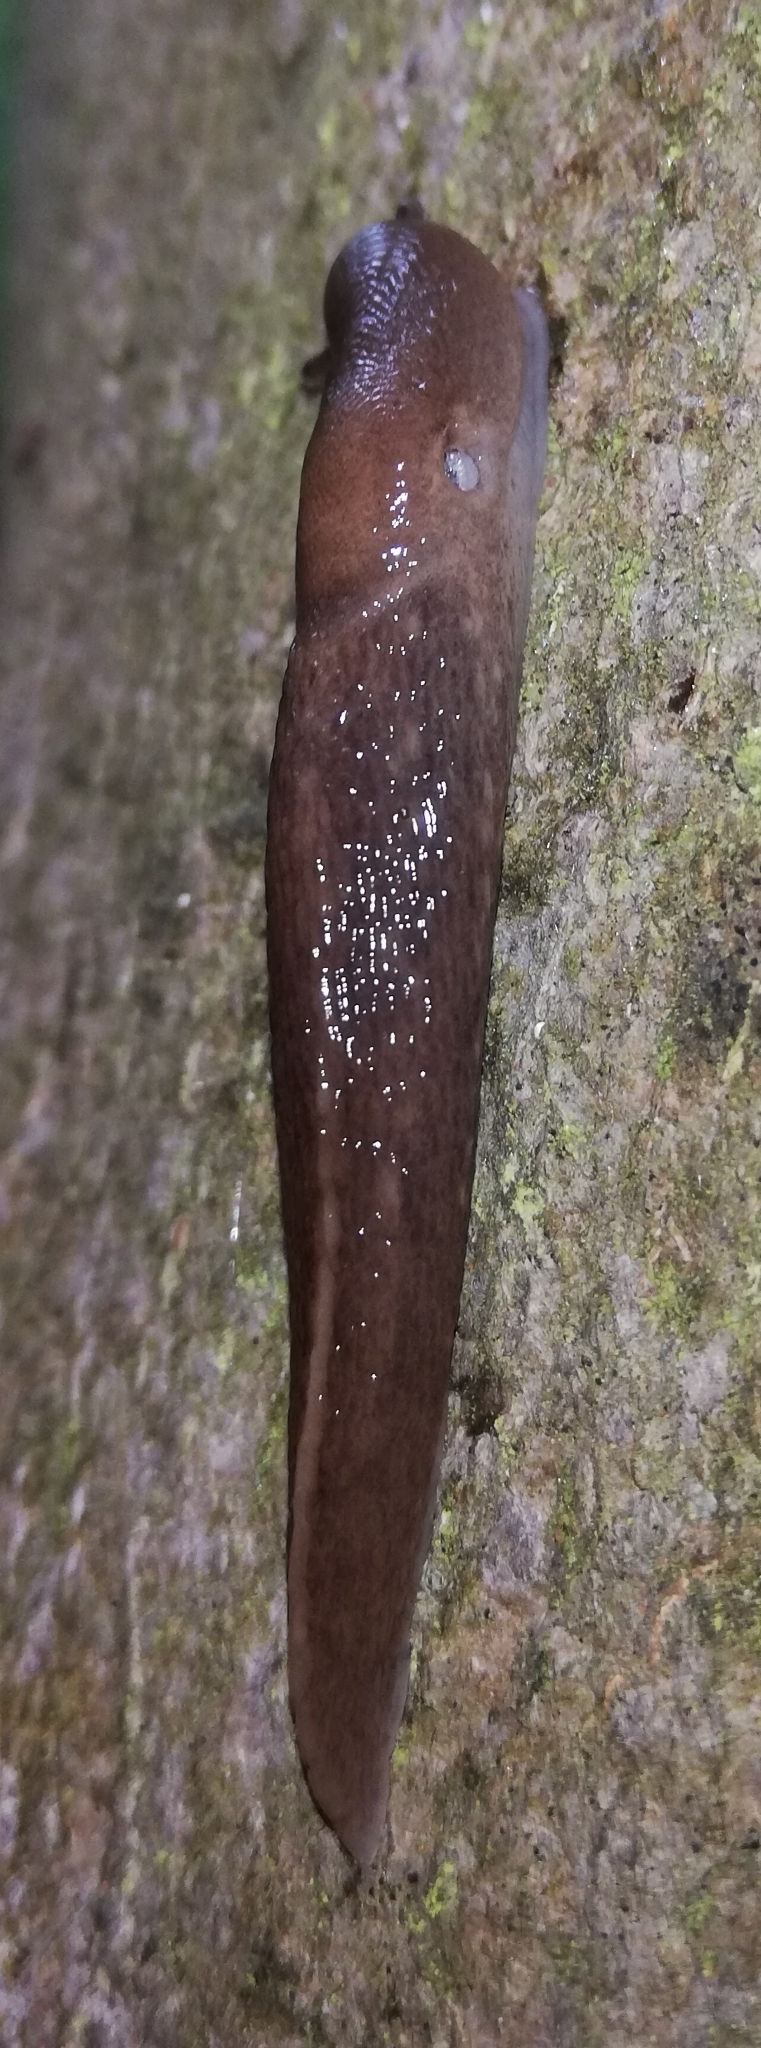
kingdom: Animalia
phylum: Mollusca
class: Gastropoda
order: Stylommatophora
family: Limacidae
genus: Limax
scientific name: Limax cinereoniger
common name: Ash-black slug
